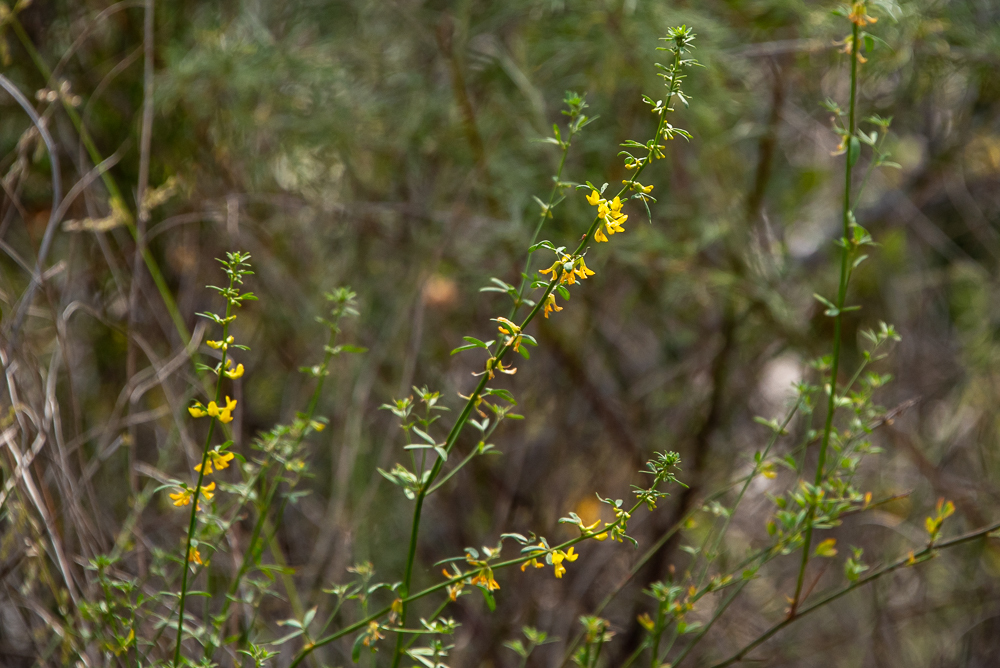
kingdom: Plantae
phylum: Tracheophyta
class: Magnoliopsida
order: Fabales
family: Fabaceae
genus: Acmispon
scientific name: Acmispon glaber
